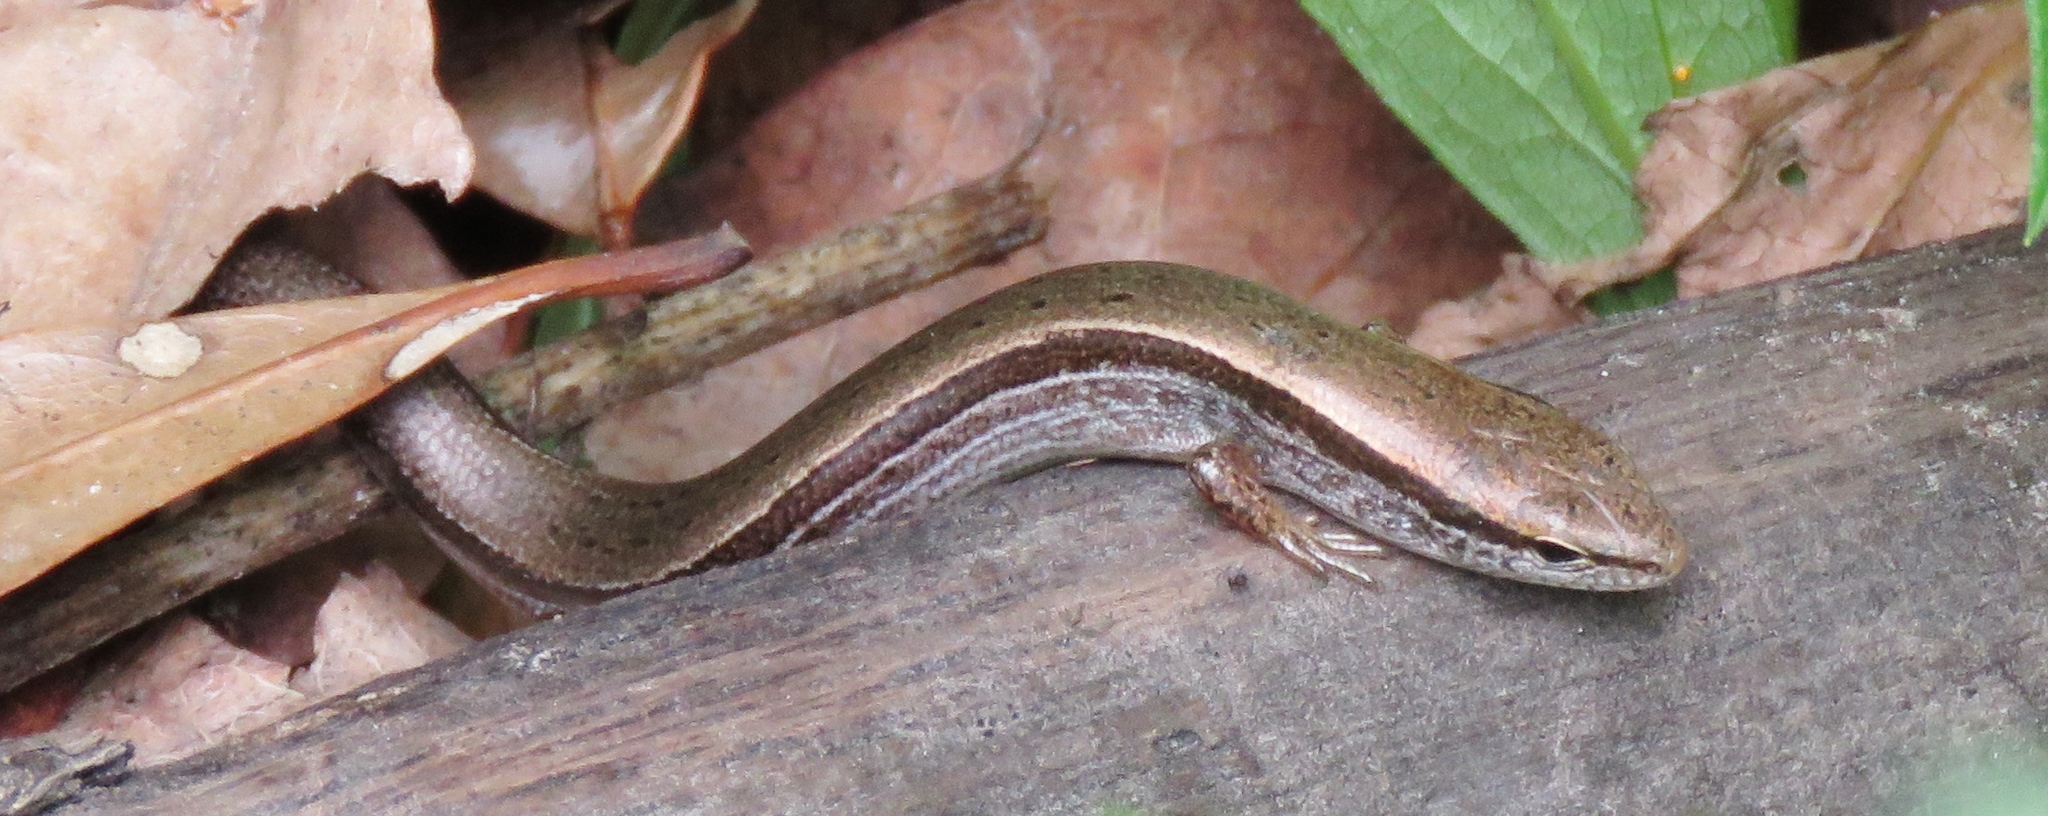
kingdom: Animalia
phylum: Chordata
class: Squamata
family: Scincidae
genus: Scincella
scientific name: Scincella lateralis
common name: Ground skink
